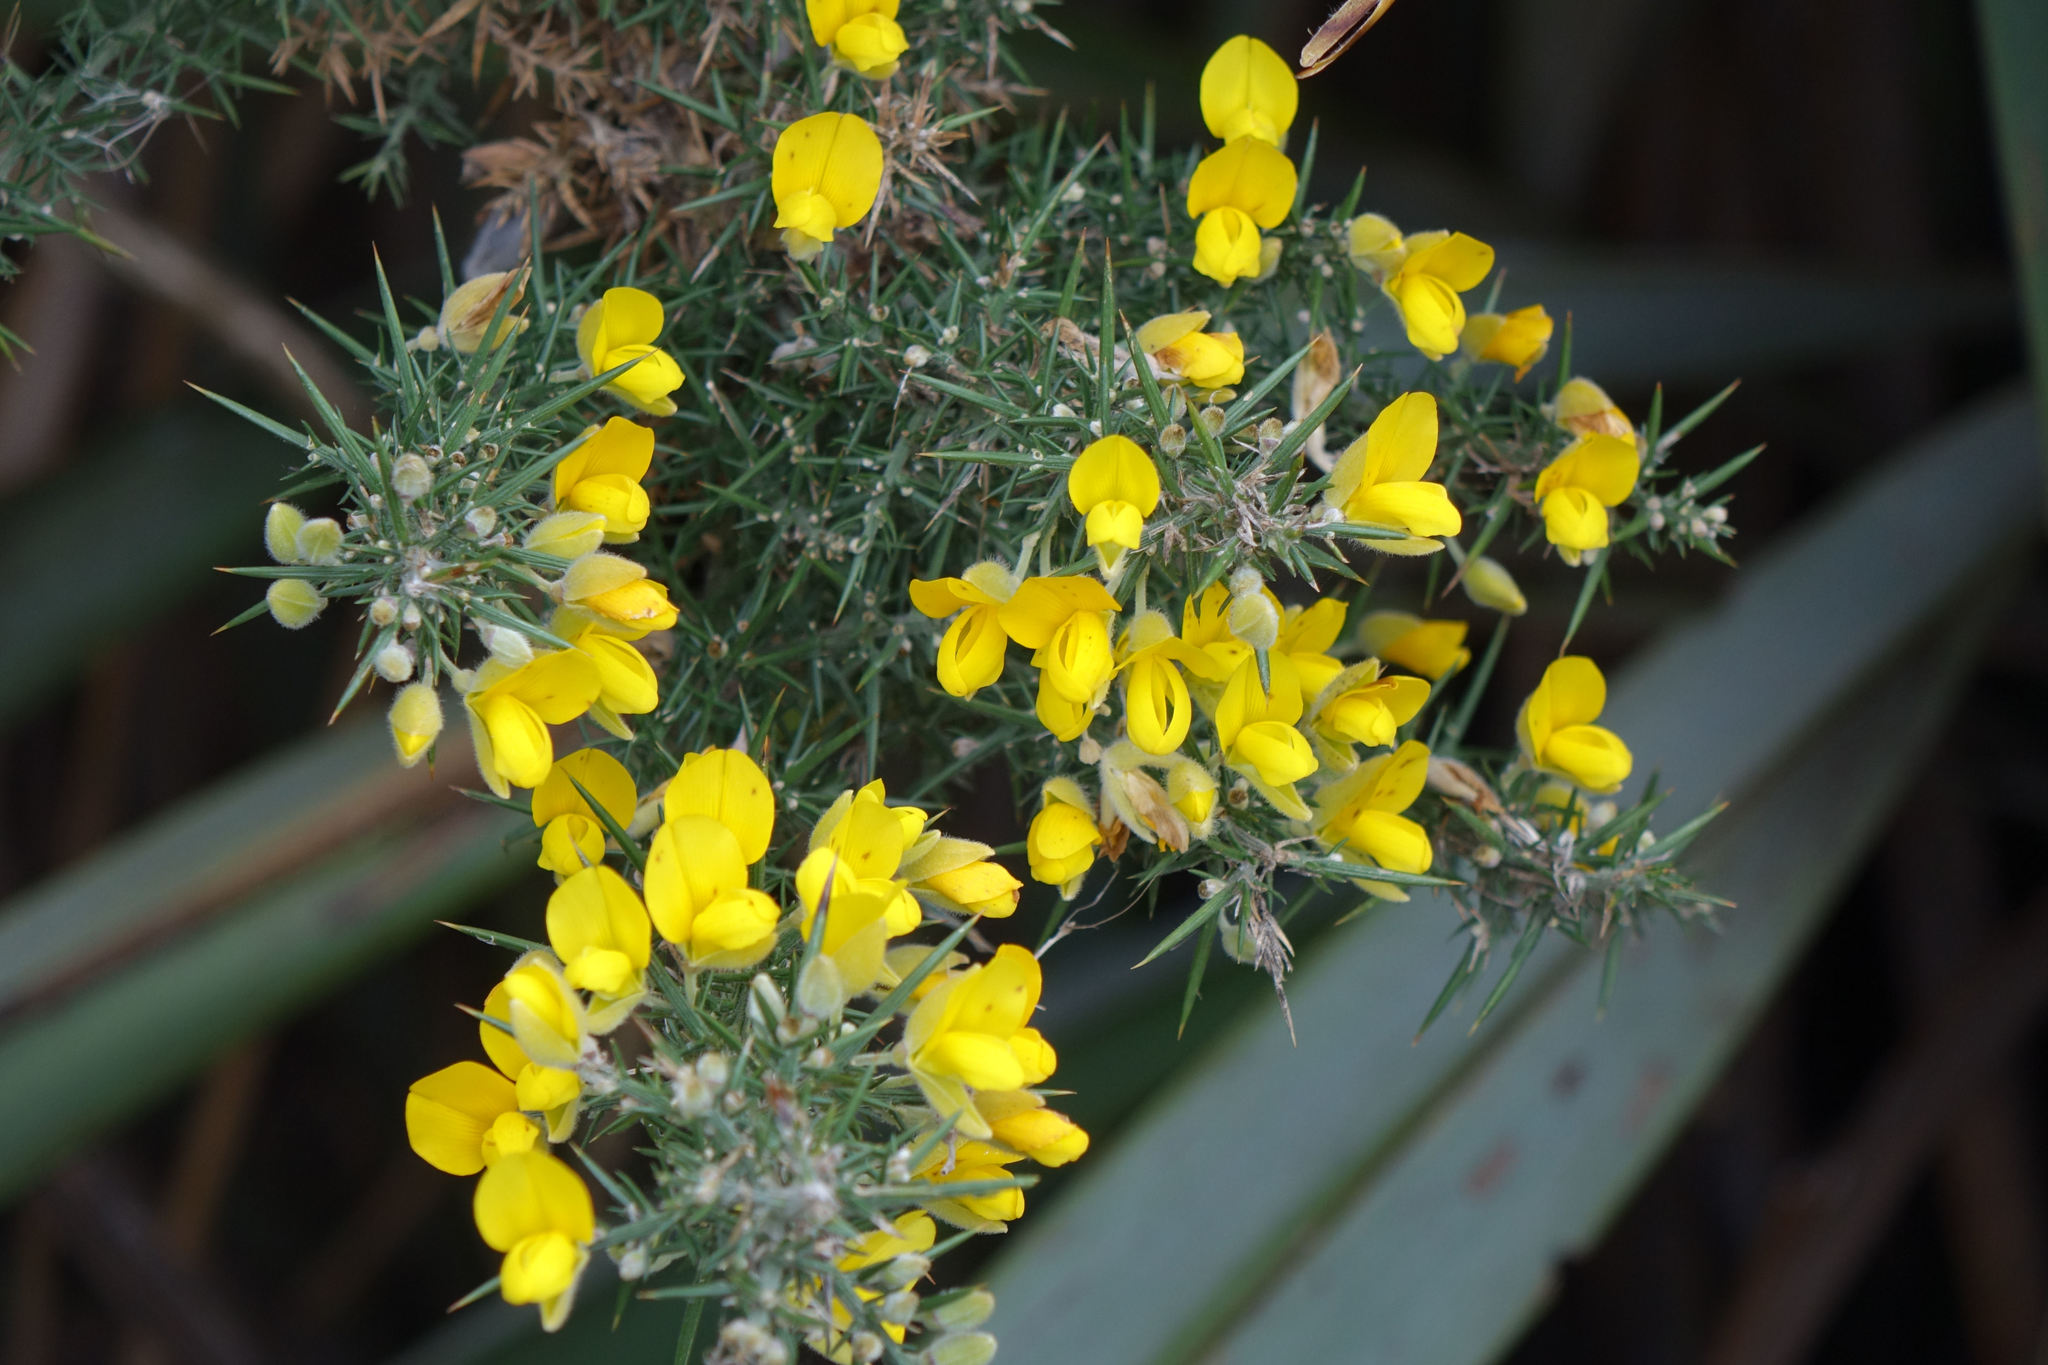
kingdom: Plantae
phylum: Tracheophyta
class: Magnoliopsida
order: Fabales
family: Fabaceae
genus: Ulex
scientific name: Ulex europaeus
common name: Common gorse
